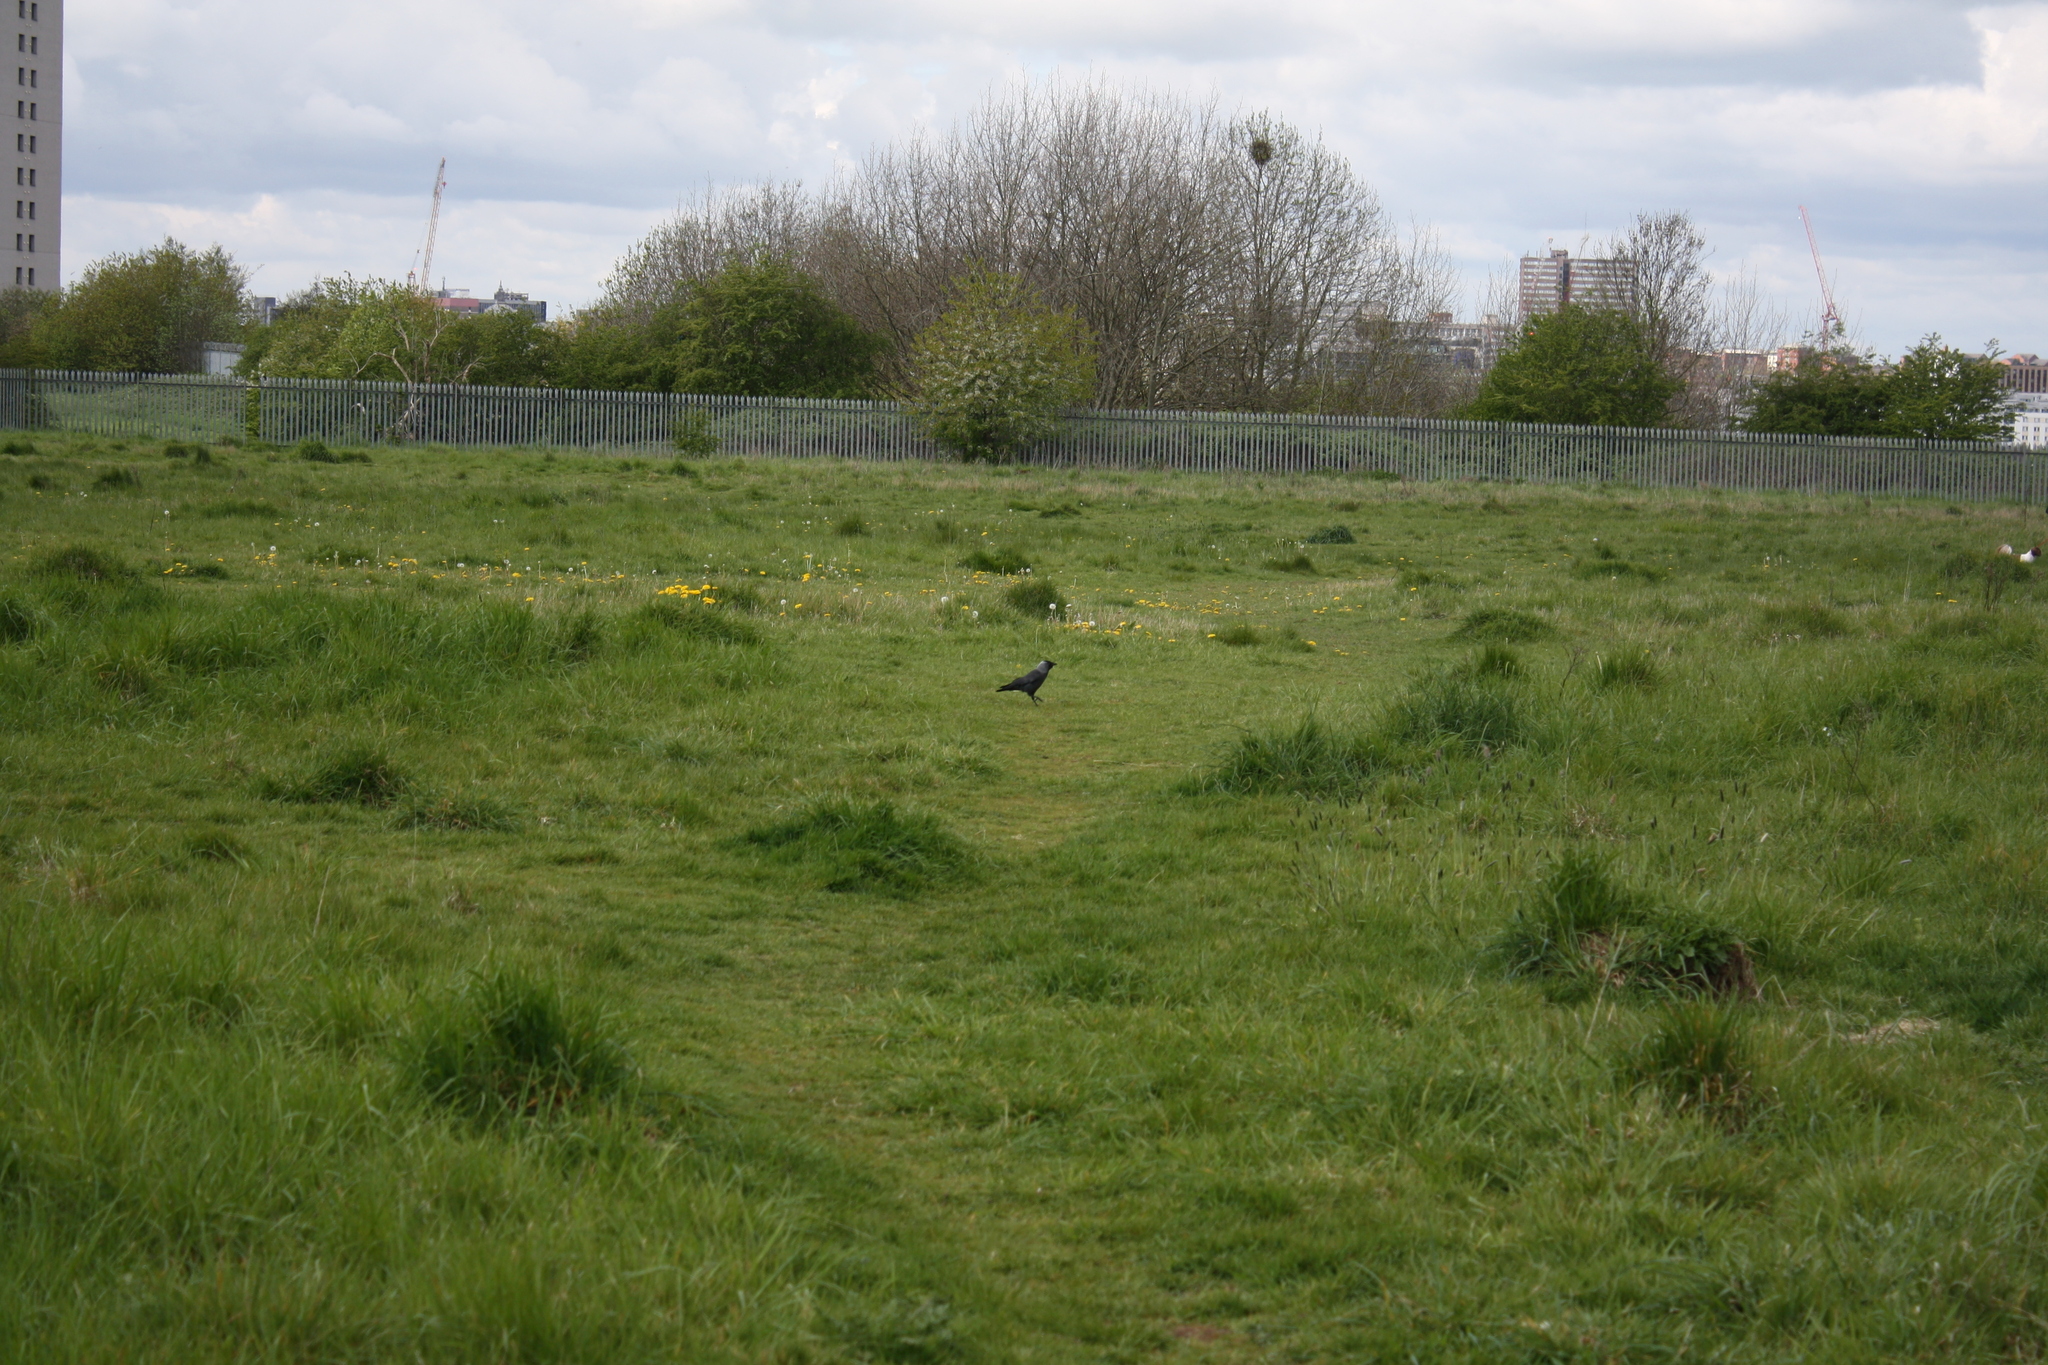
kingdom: Animalia
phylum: Chordata
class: Aves
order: Passeriformes
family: Corvidae
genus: Coloeus
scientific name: Coloeus monedula
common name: Western jackdaw
